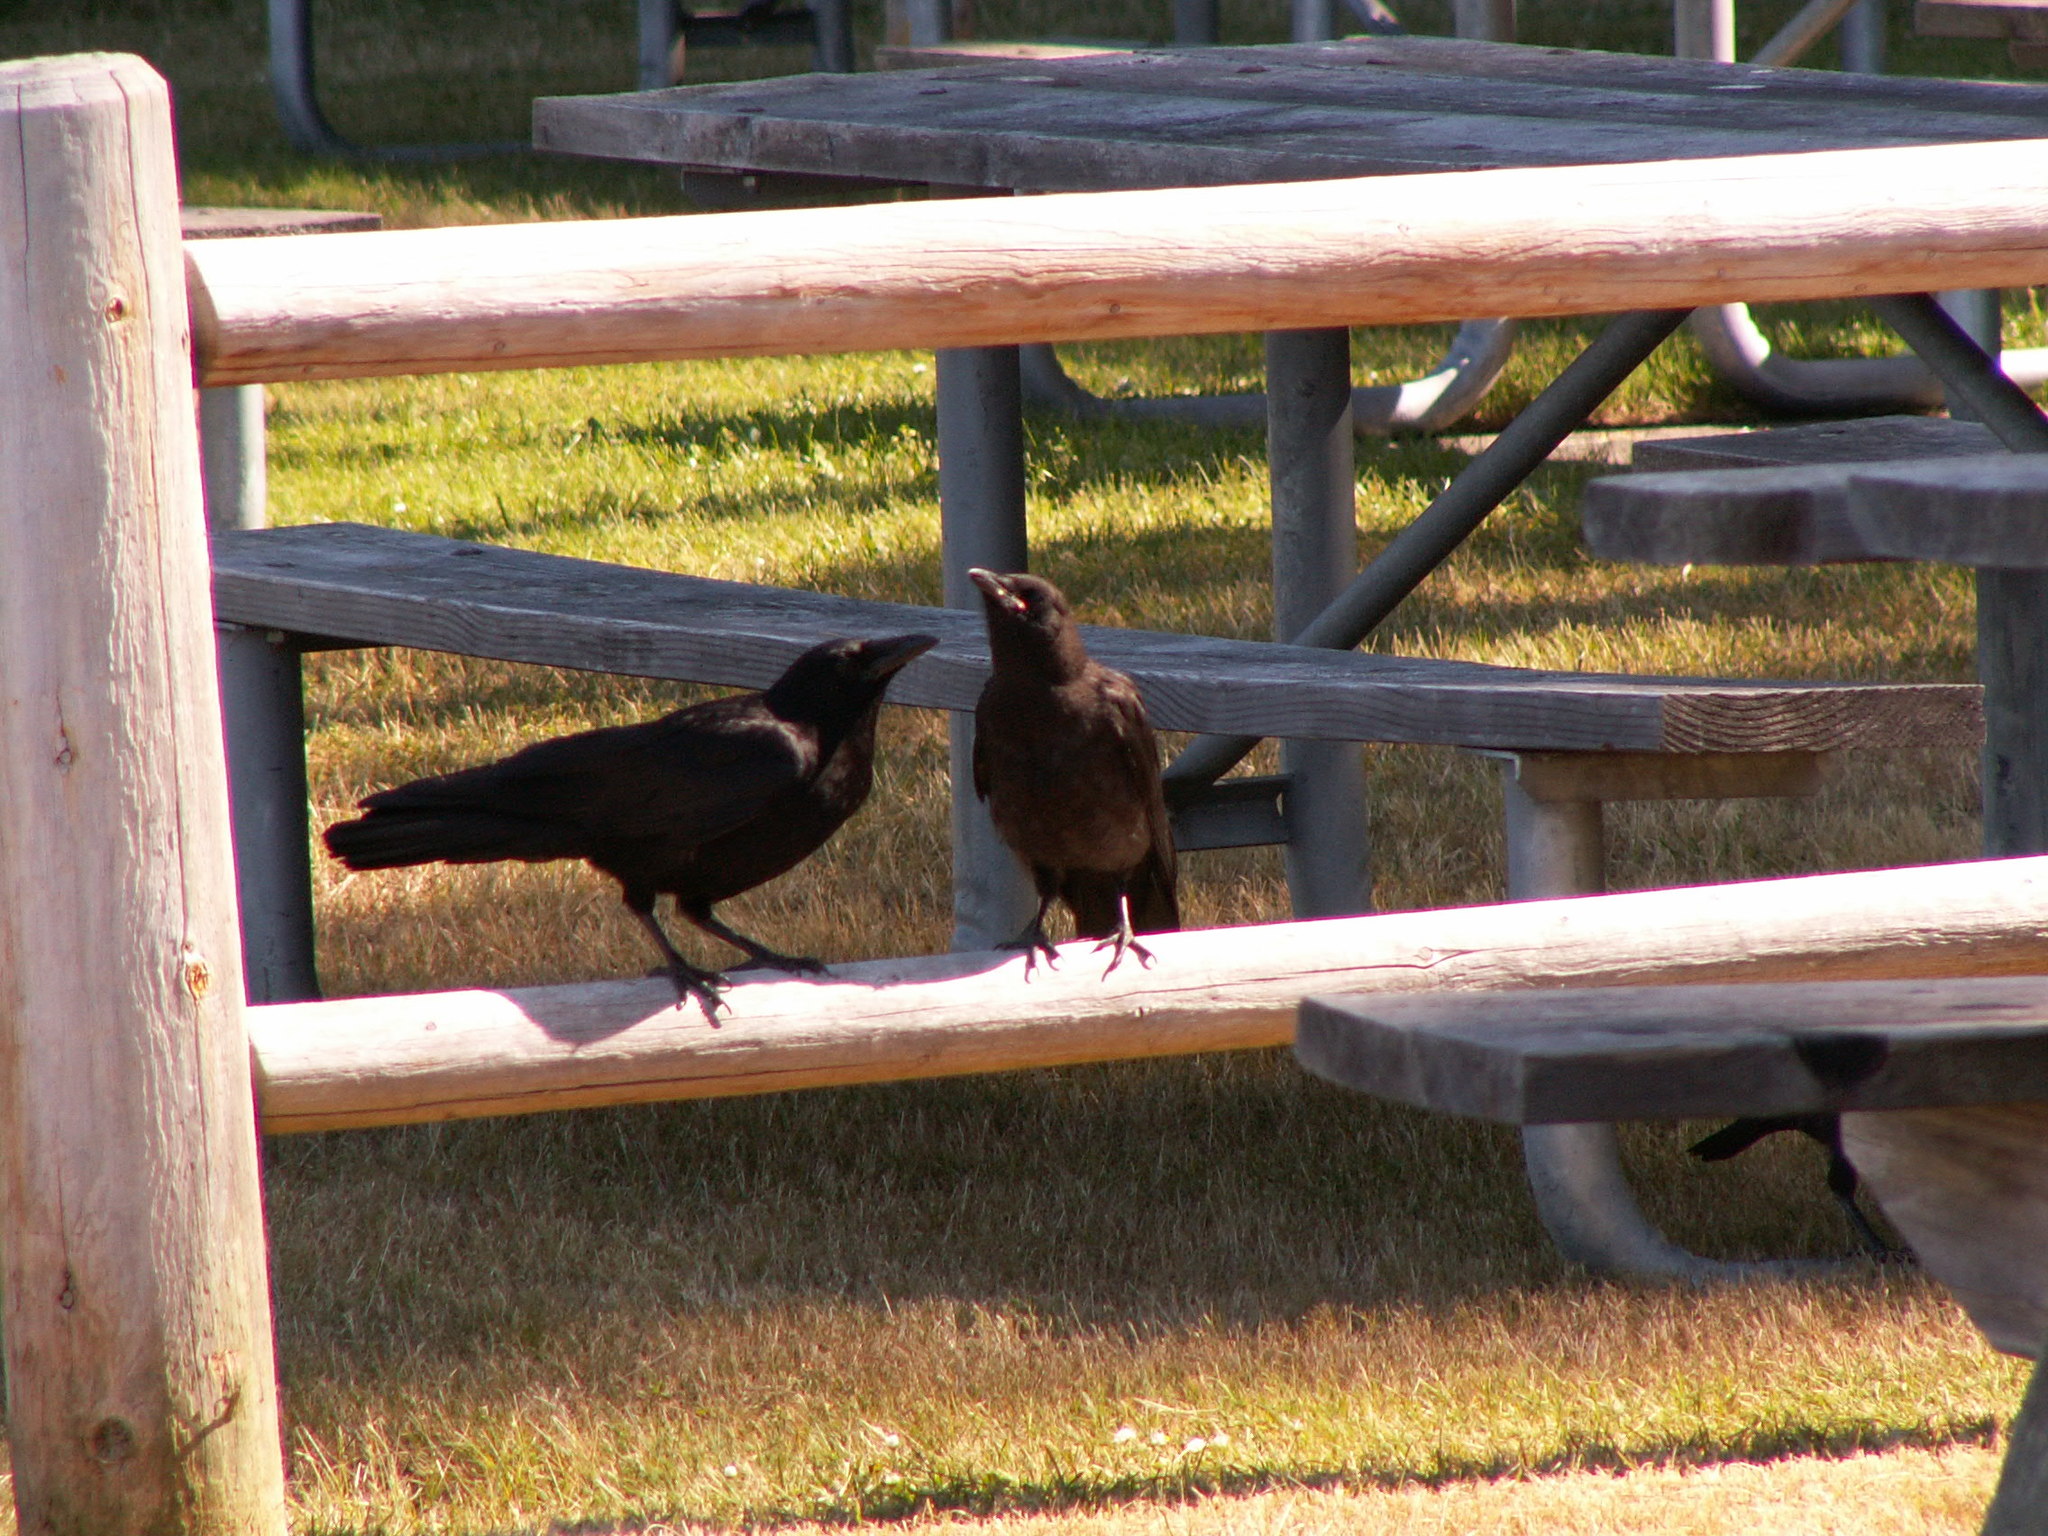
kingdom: Animalia
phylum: Chordata
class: Aves
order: Passeriformes
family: Corvidae
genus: Corvus
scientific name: Corvus brachyrhynchos
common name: American crow
